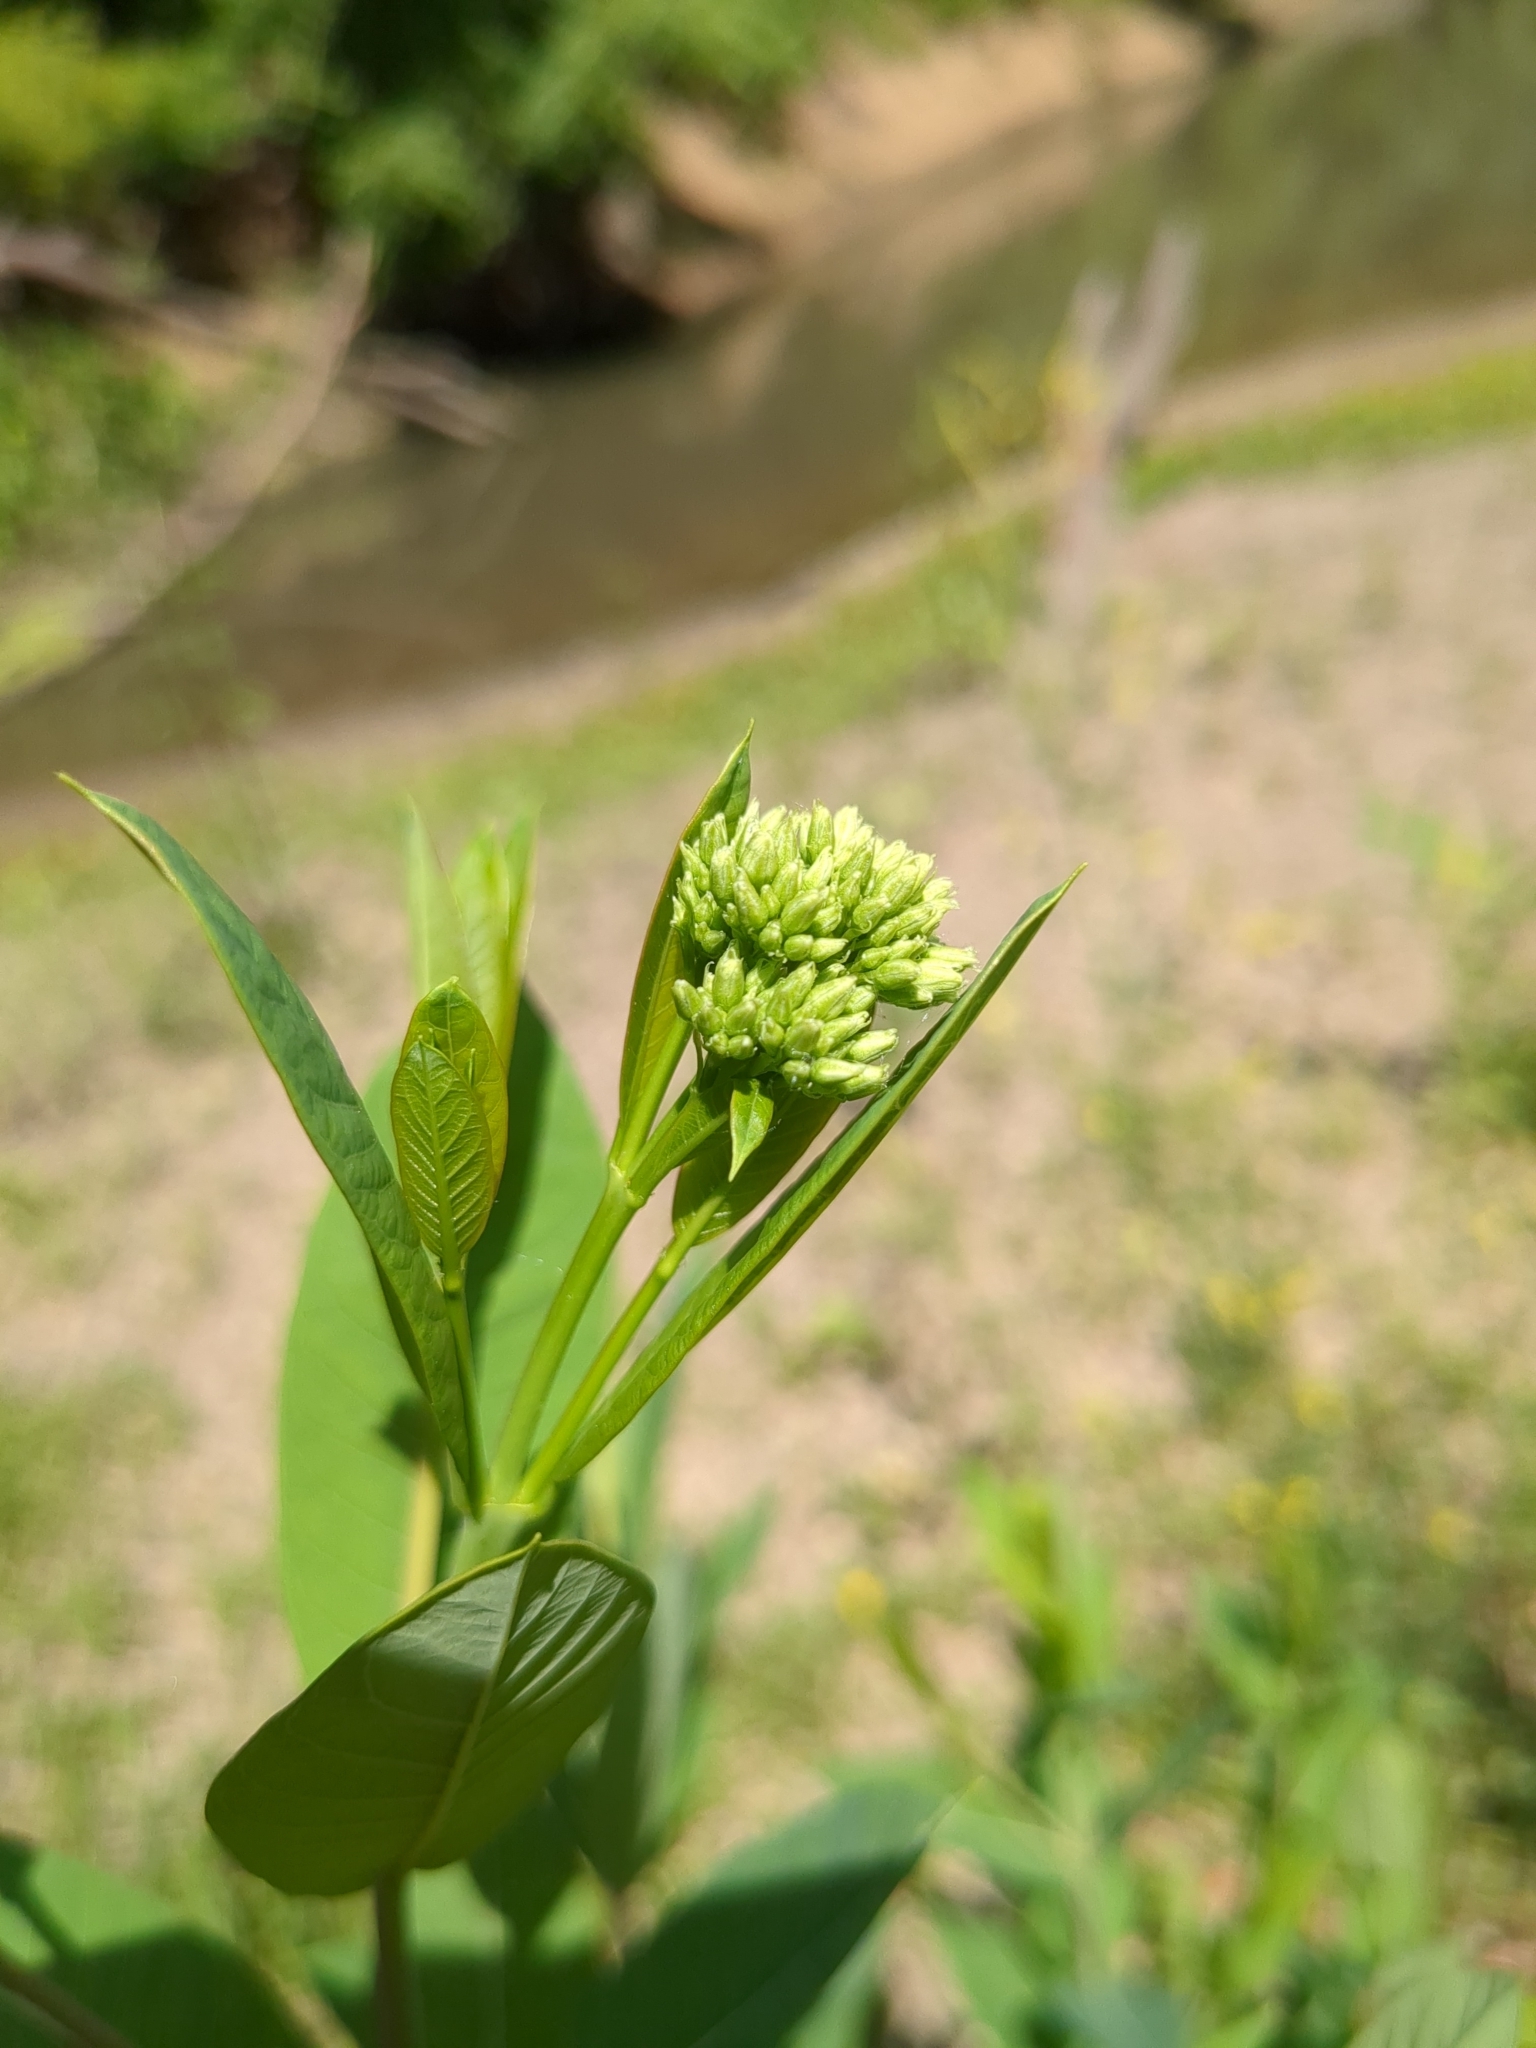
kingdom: Plantae
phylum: Tracheophyta
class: Magnoliopsida
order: Gentianales
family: Apocynaceae
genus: Apocynum
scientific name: Apocynum cannabinum
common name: Hemp dogbane
